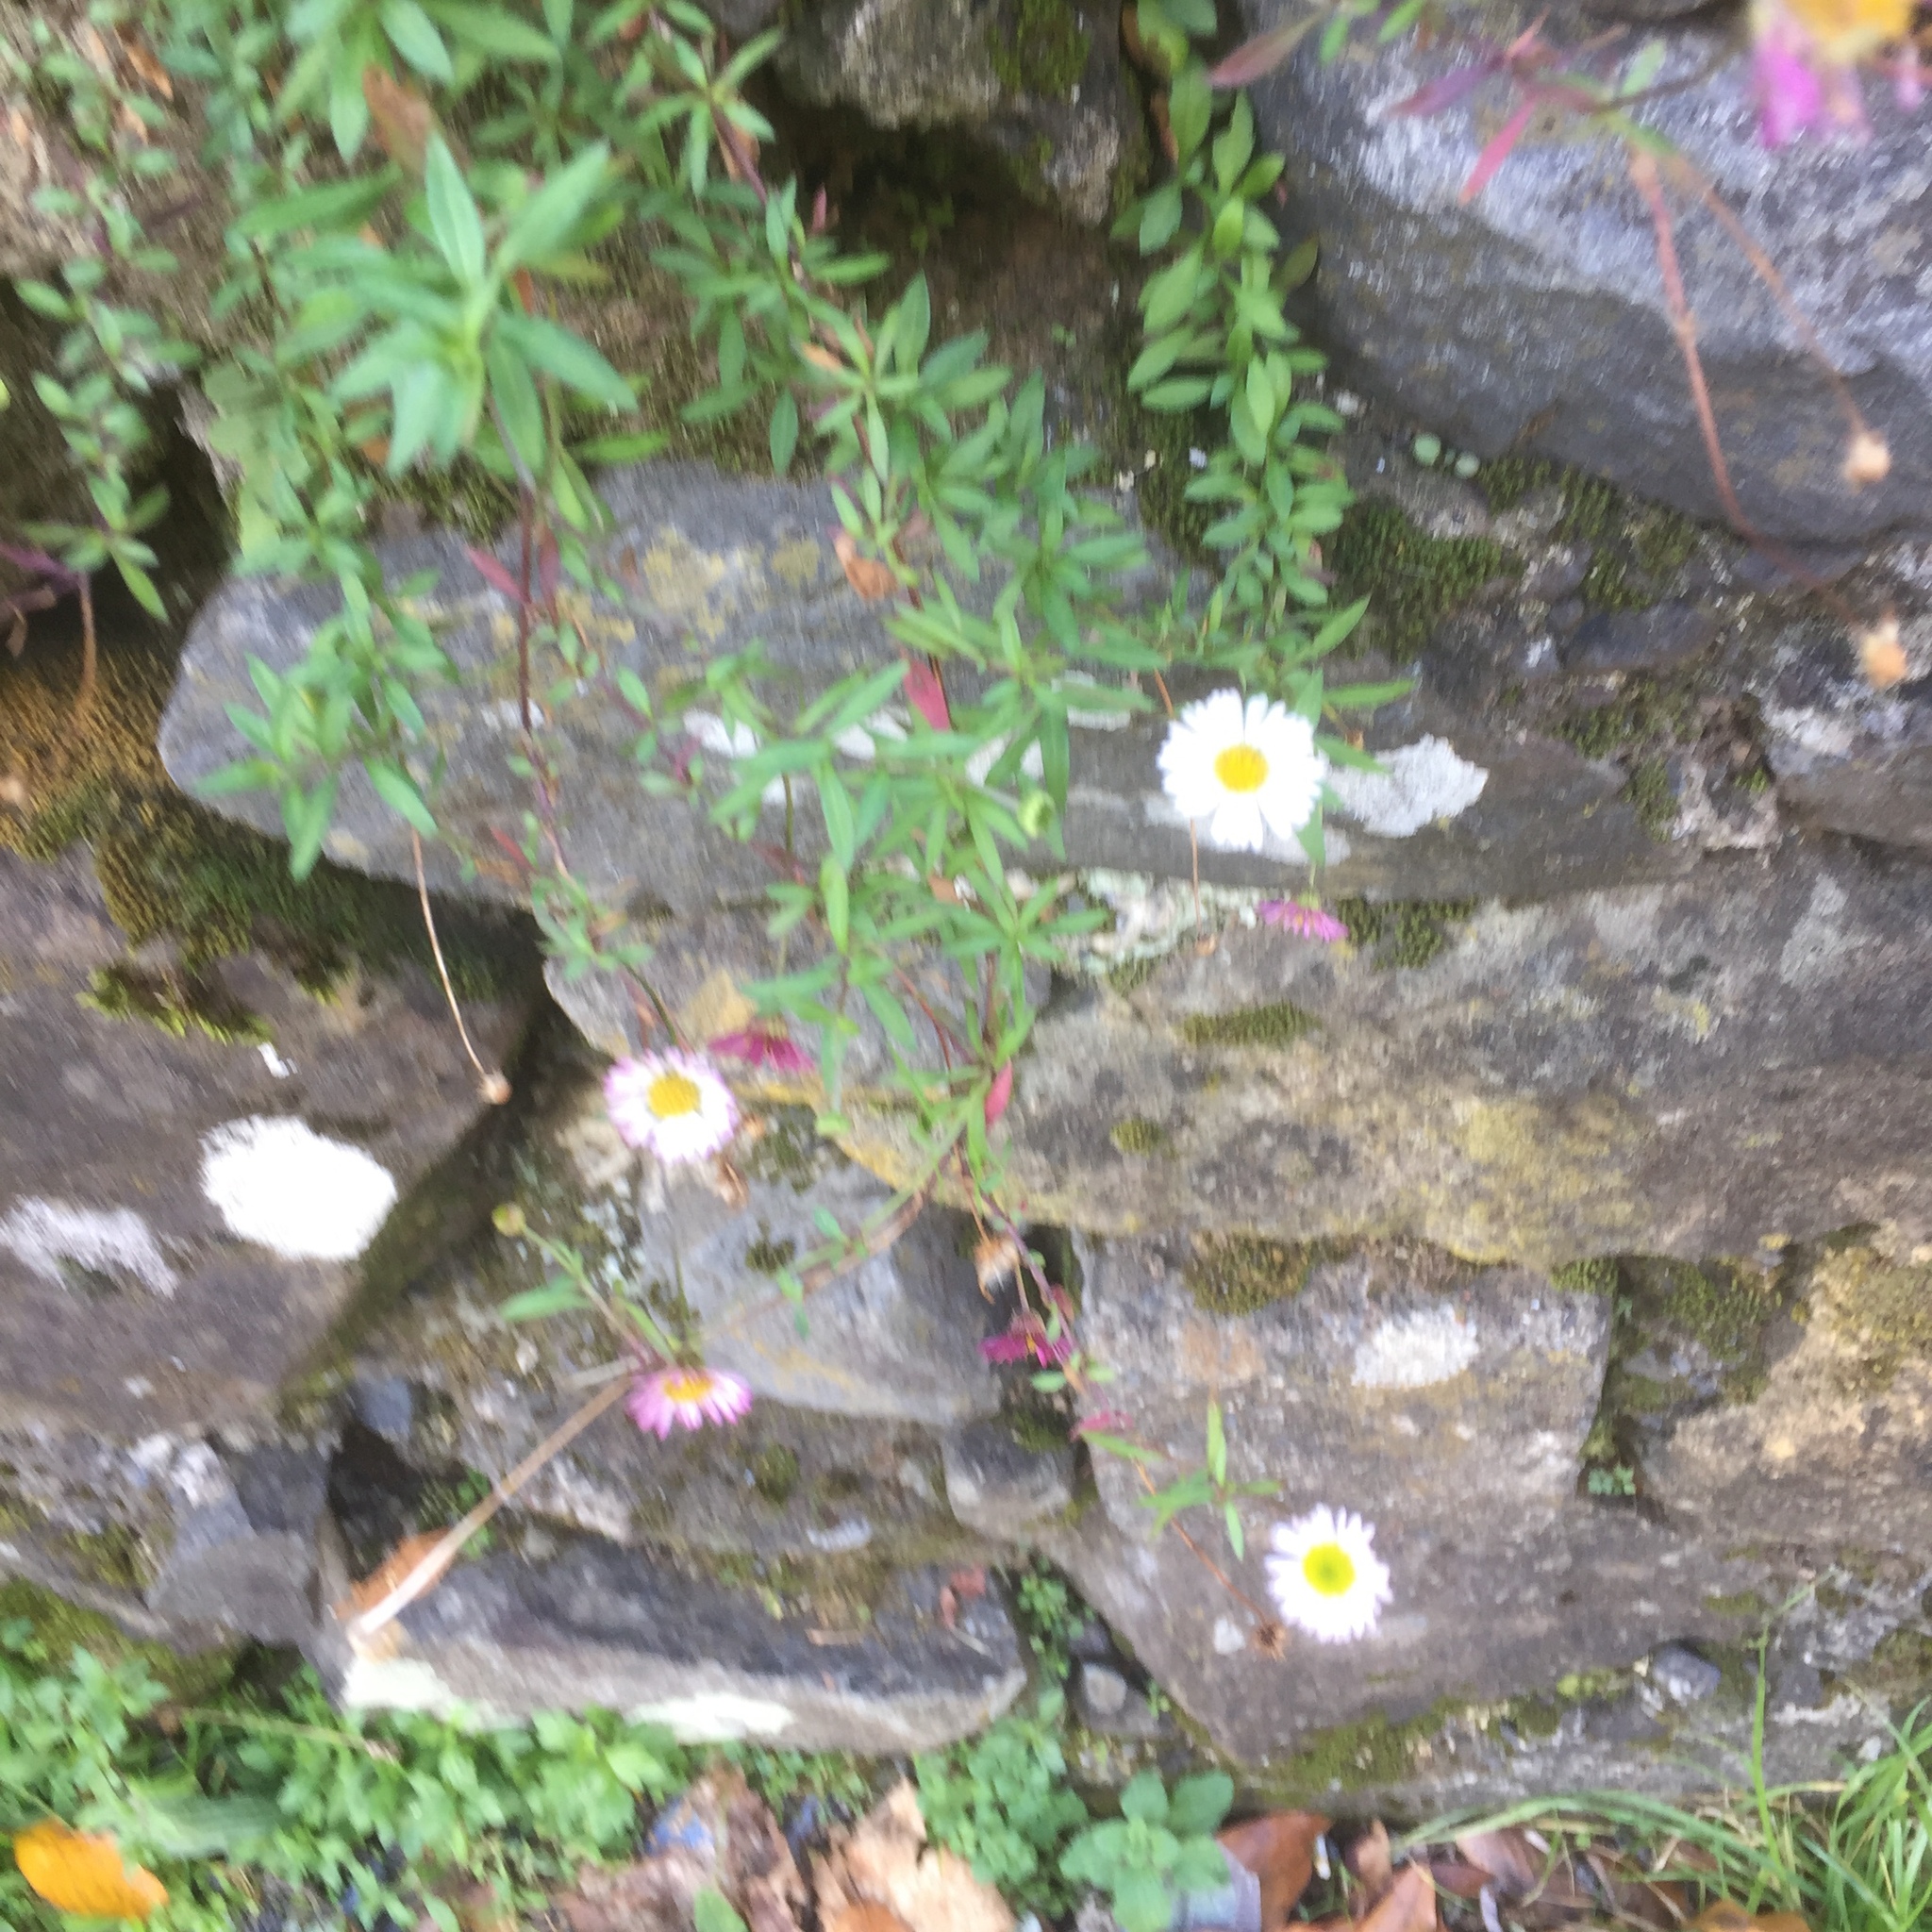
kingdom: Plantae
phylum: Tracheophyta
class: Magnoliopsida
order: Asterales
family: Asteraceae
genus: Erigeron
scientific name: Erigeron karvinskianus
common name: Mexican fleabane
